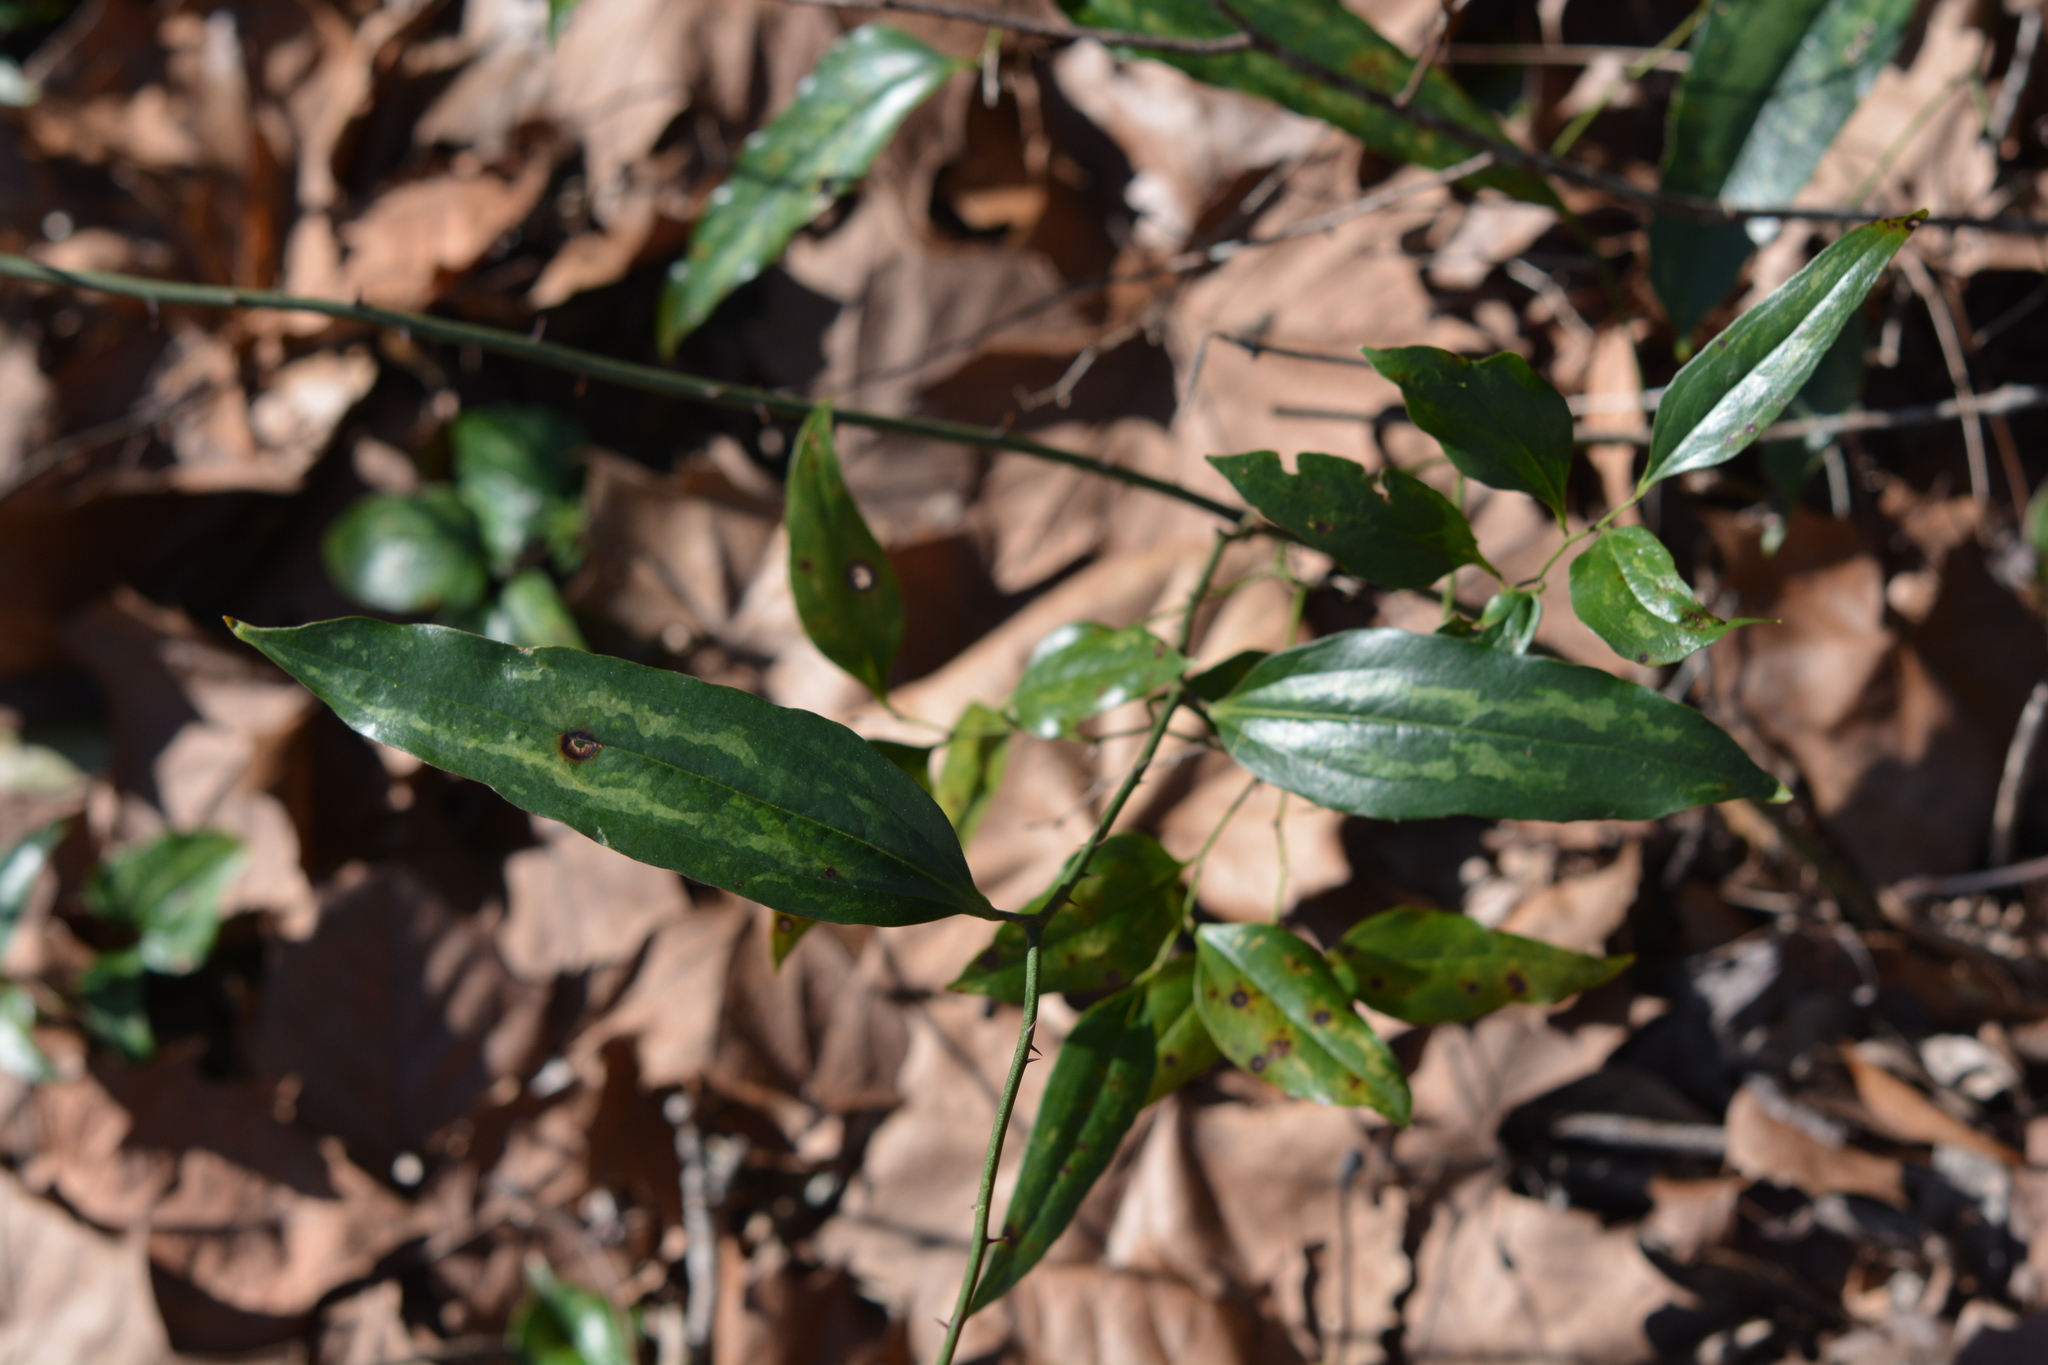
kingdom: Plantae
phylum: Tracheophyta
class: Liliopsida
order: Liliales
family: Smilacaceae
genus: Smilax
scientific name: Smilax maritima
